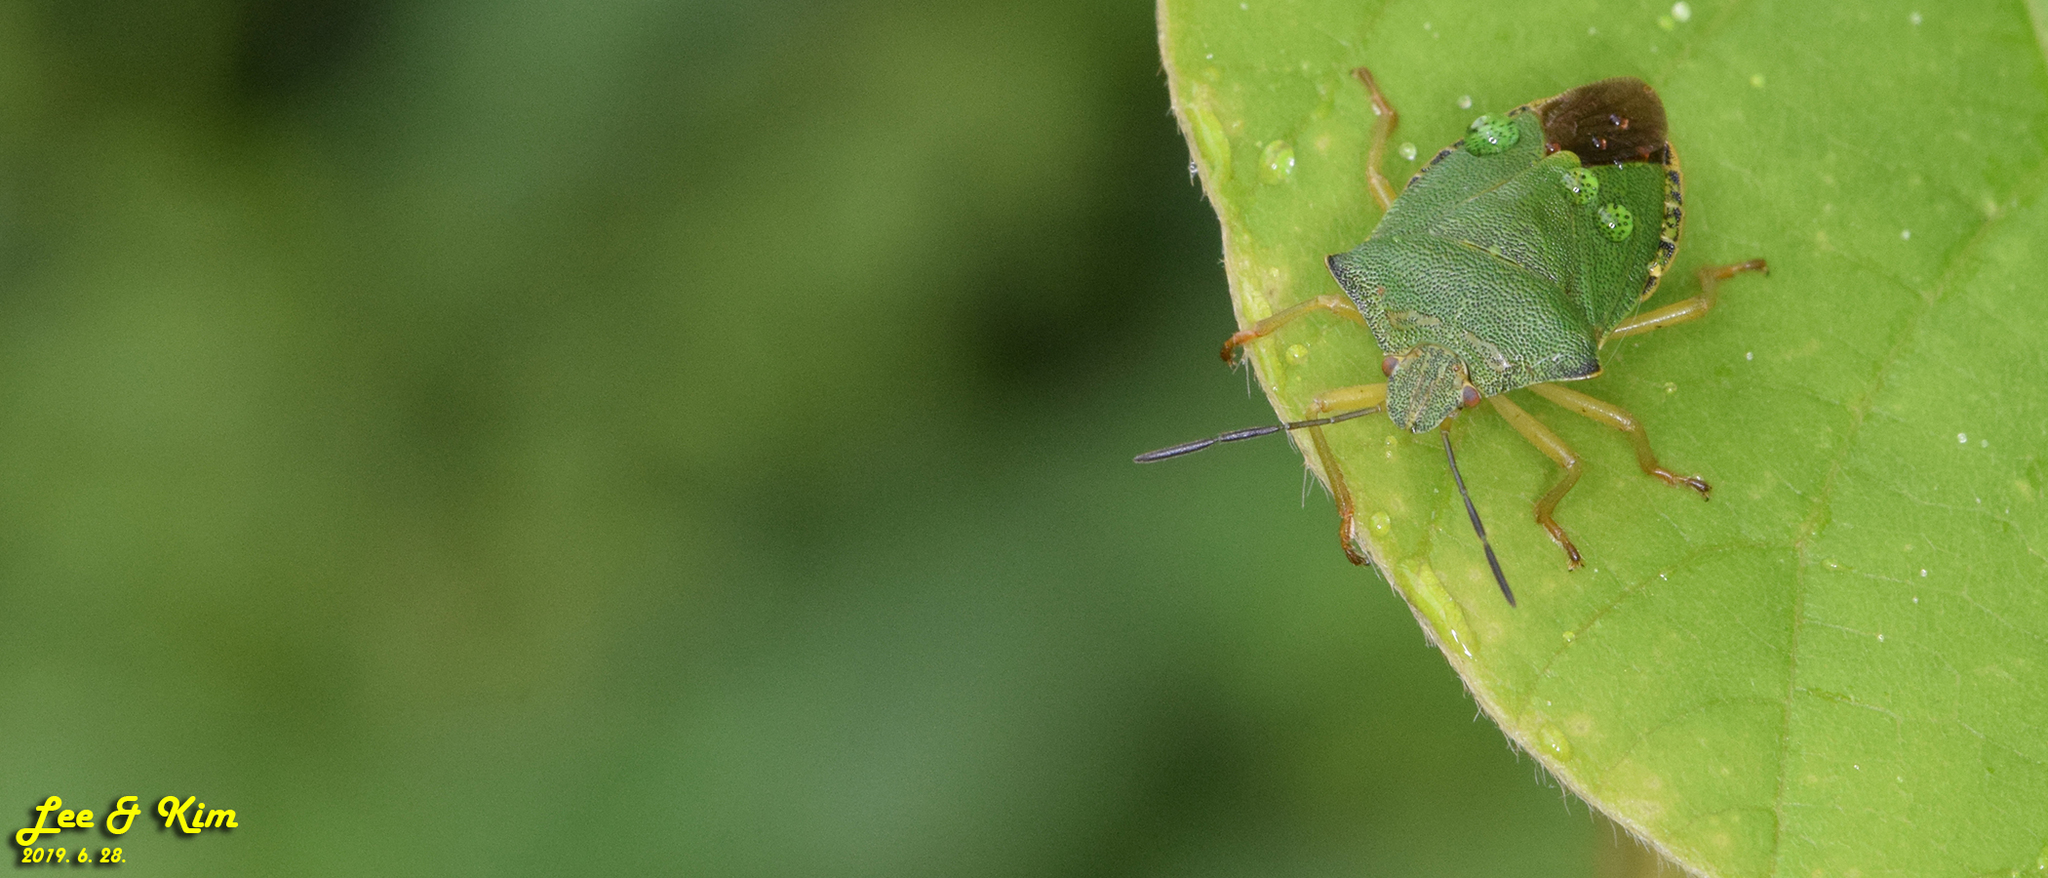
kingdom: Animalia
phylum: Arthropoda
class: Insecta
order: Hemiptera
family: Pentatomidae
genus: Palomena
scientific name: Palomena
